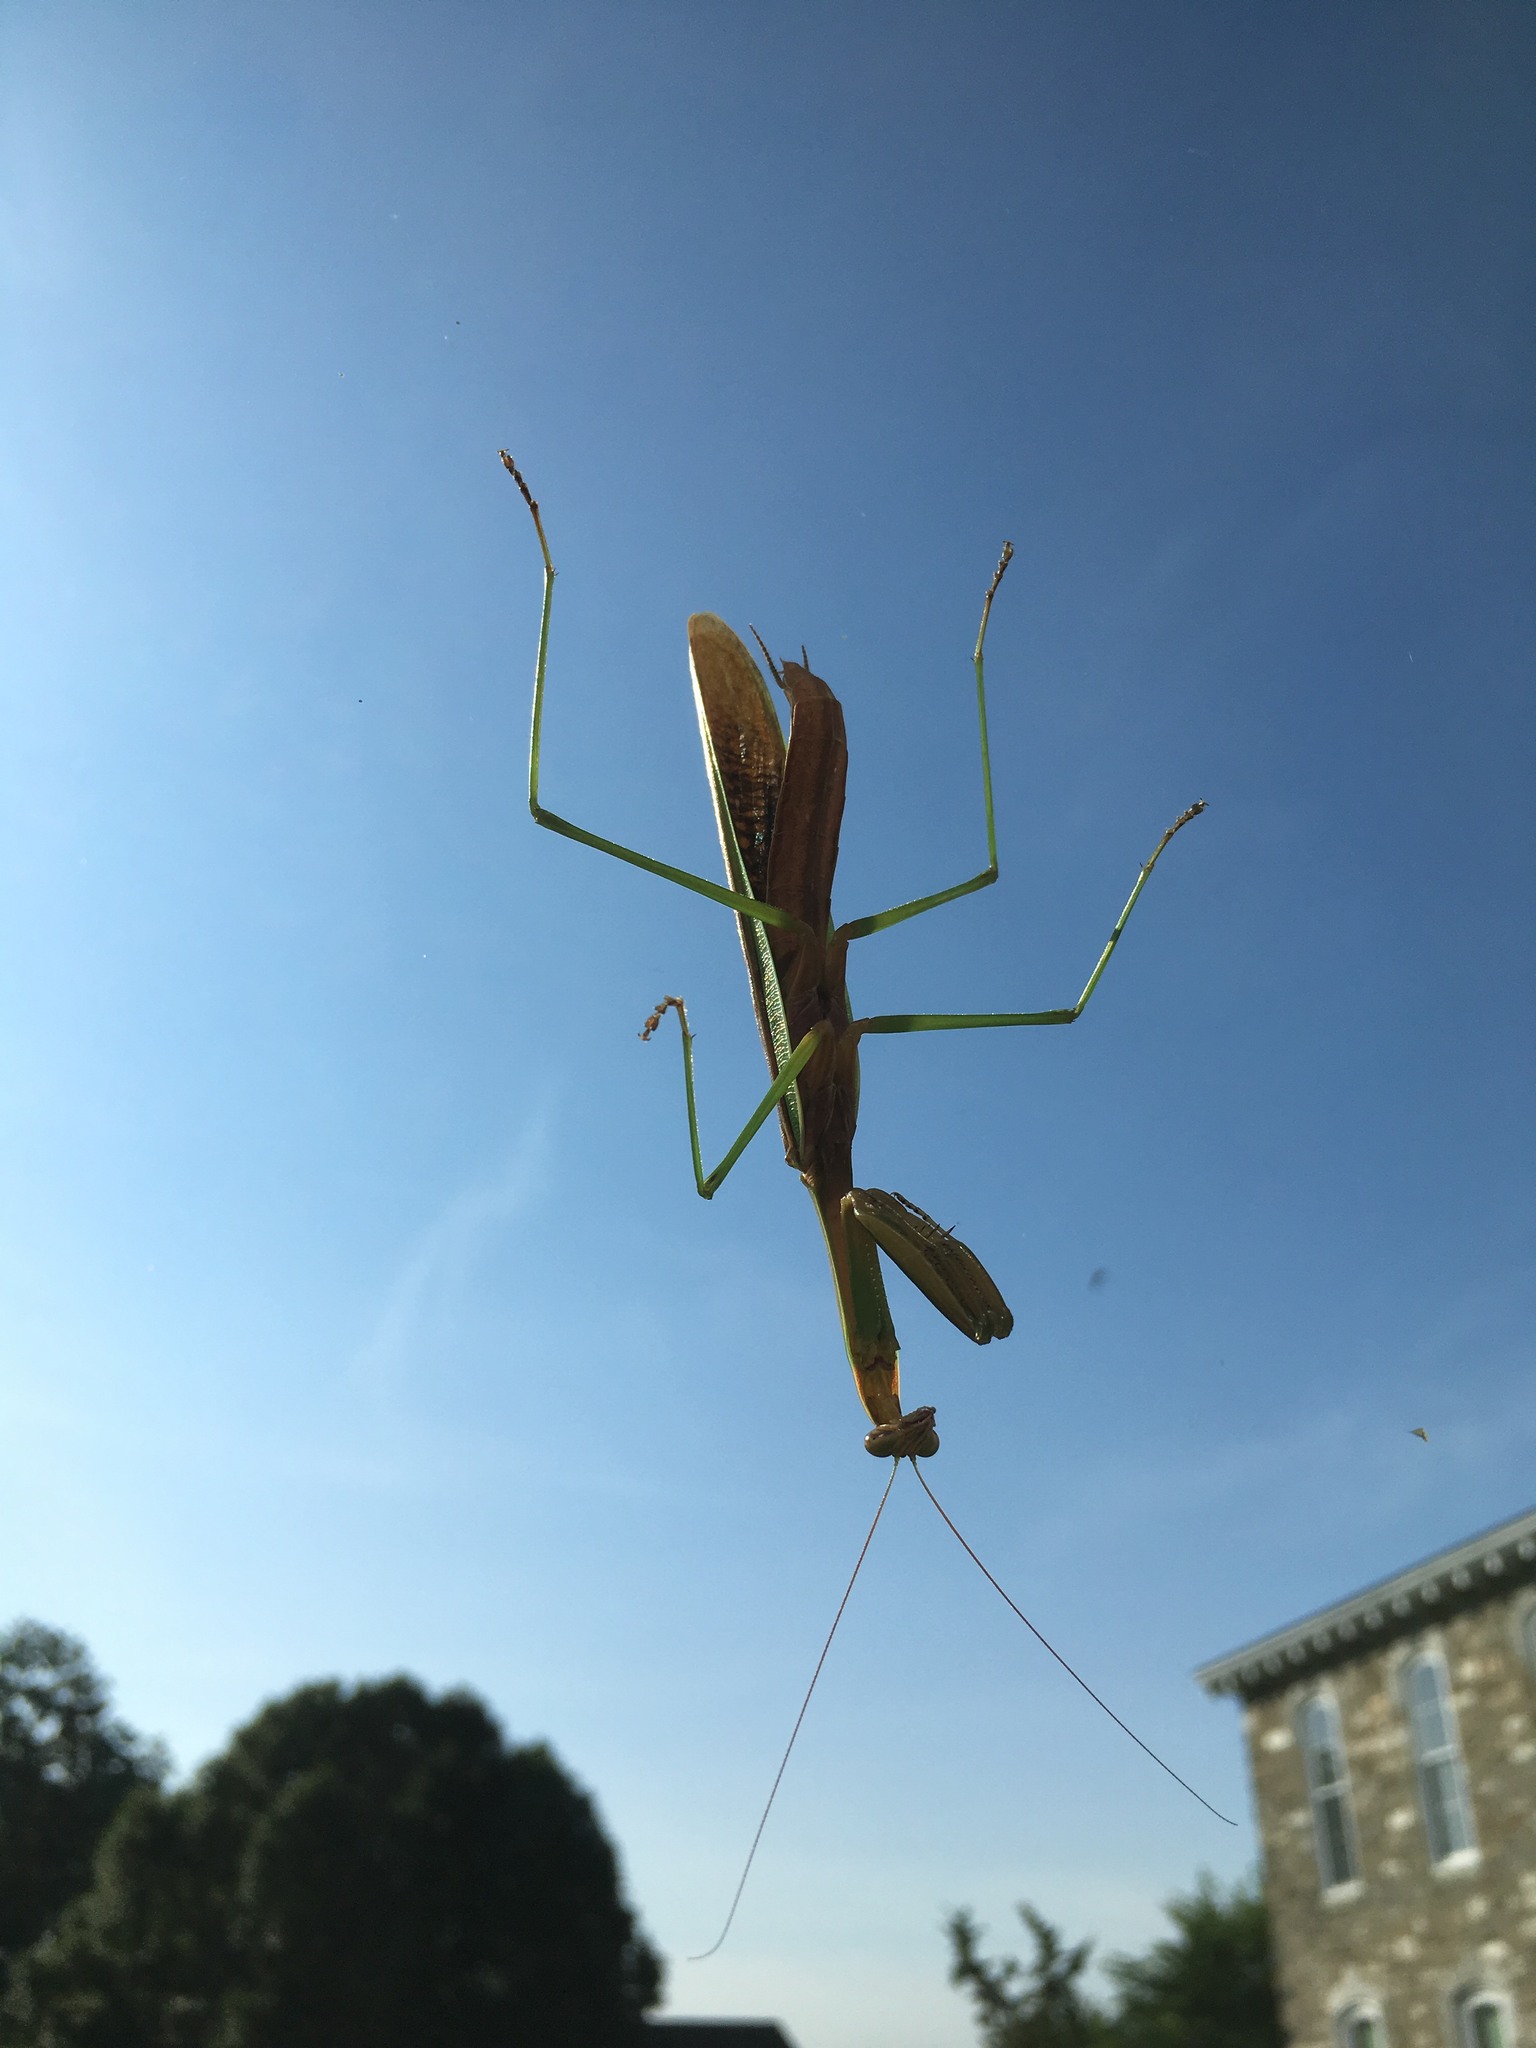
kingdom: Animalia
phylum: Arthropoda
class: Insecta
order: Mantodea
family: Mantidae
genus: Tenodera
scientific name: Tenodera sinensis
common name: Chinese mantis
